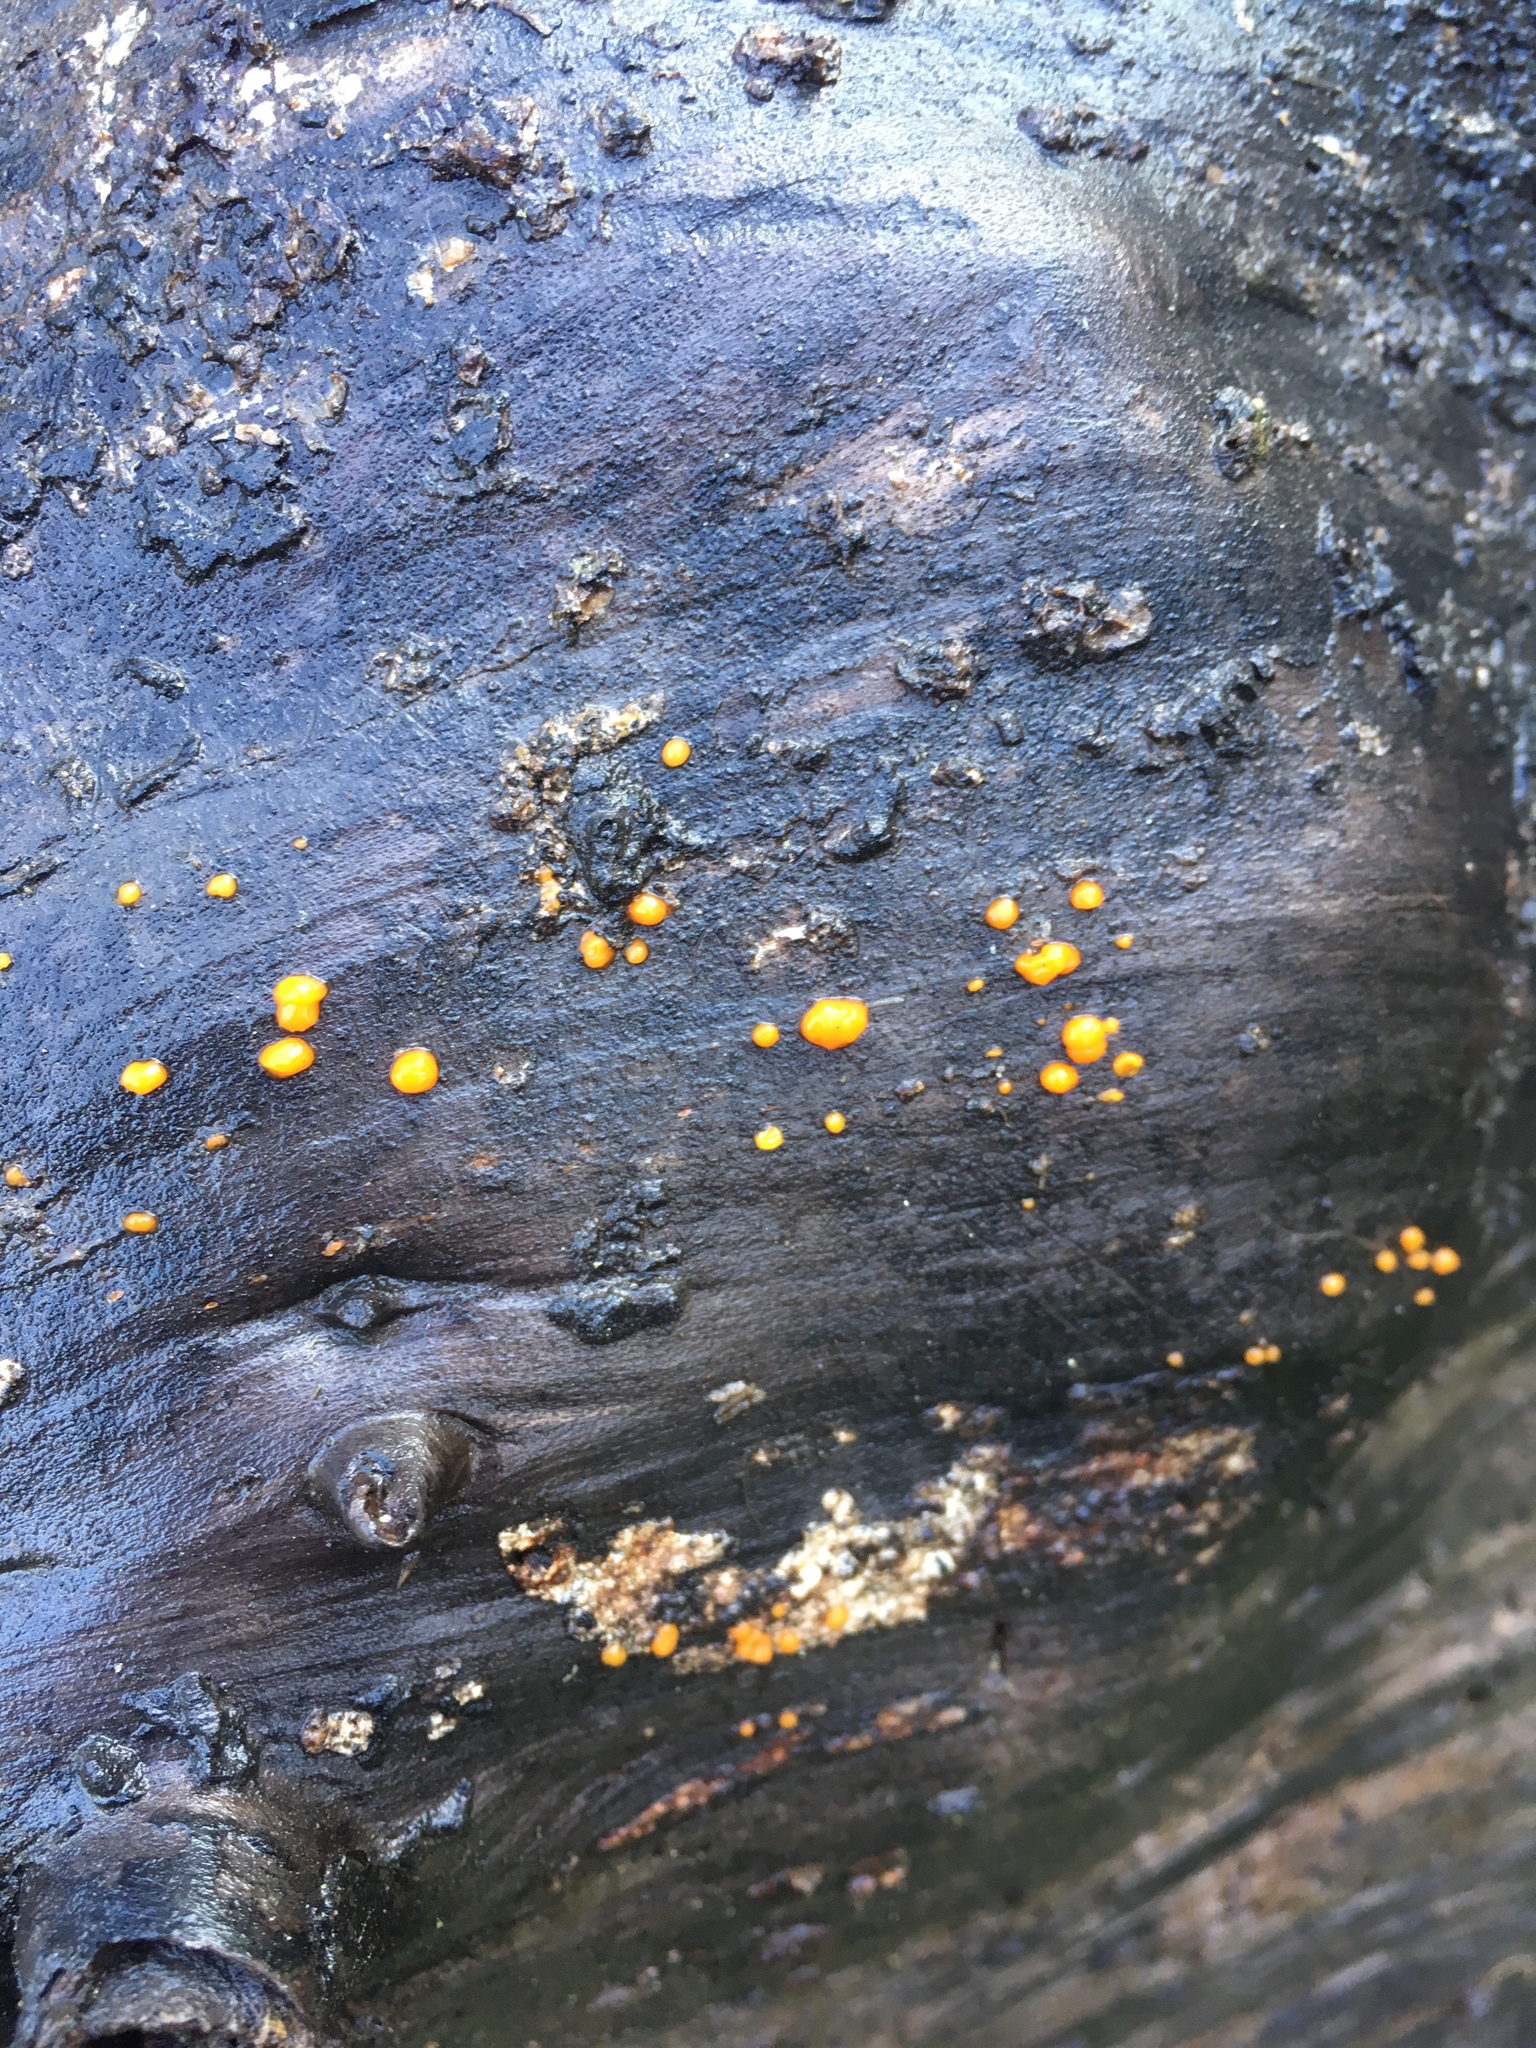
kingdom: Fungi
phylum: Basidiomycota
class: Dacrymycetes
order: Dacrymycetales
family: Dacrymycetaceae
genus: Dacrymyces
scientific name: Dacrymyces stillatus
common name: Common jelly spot
